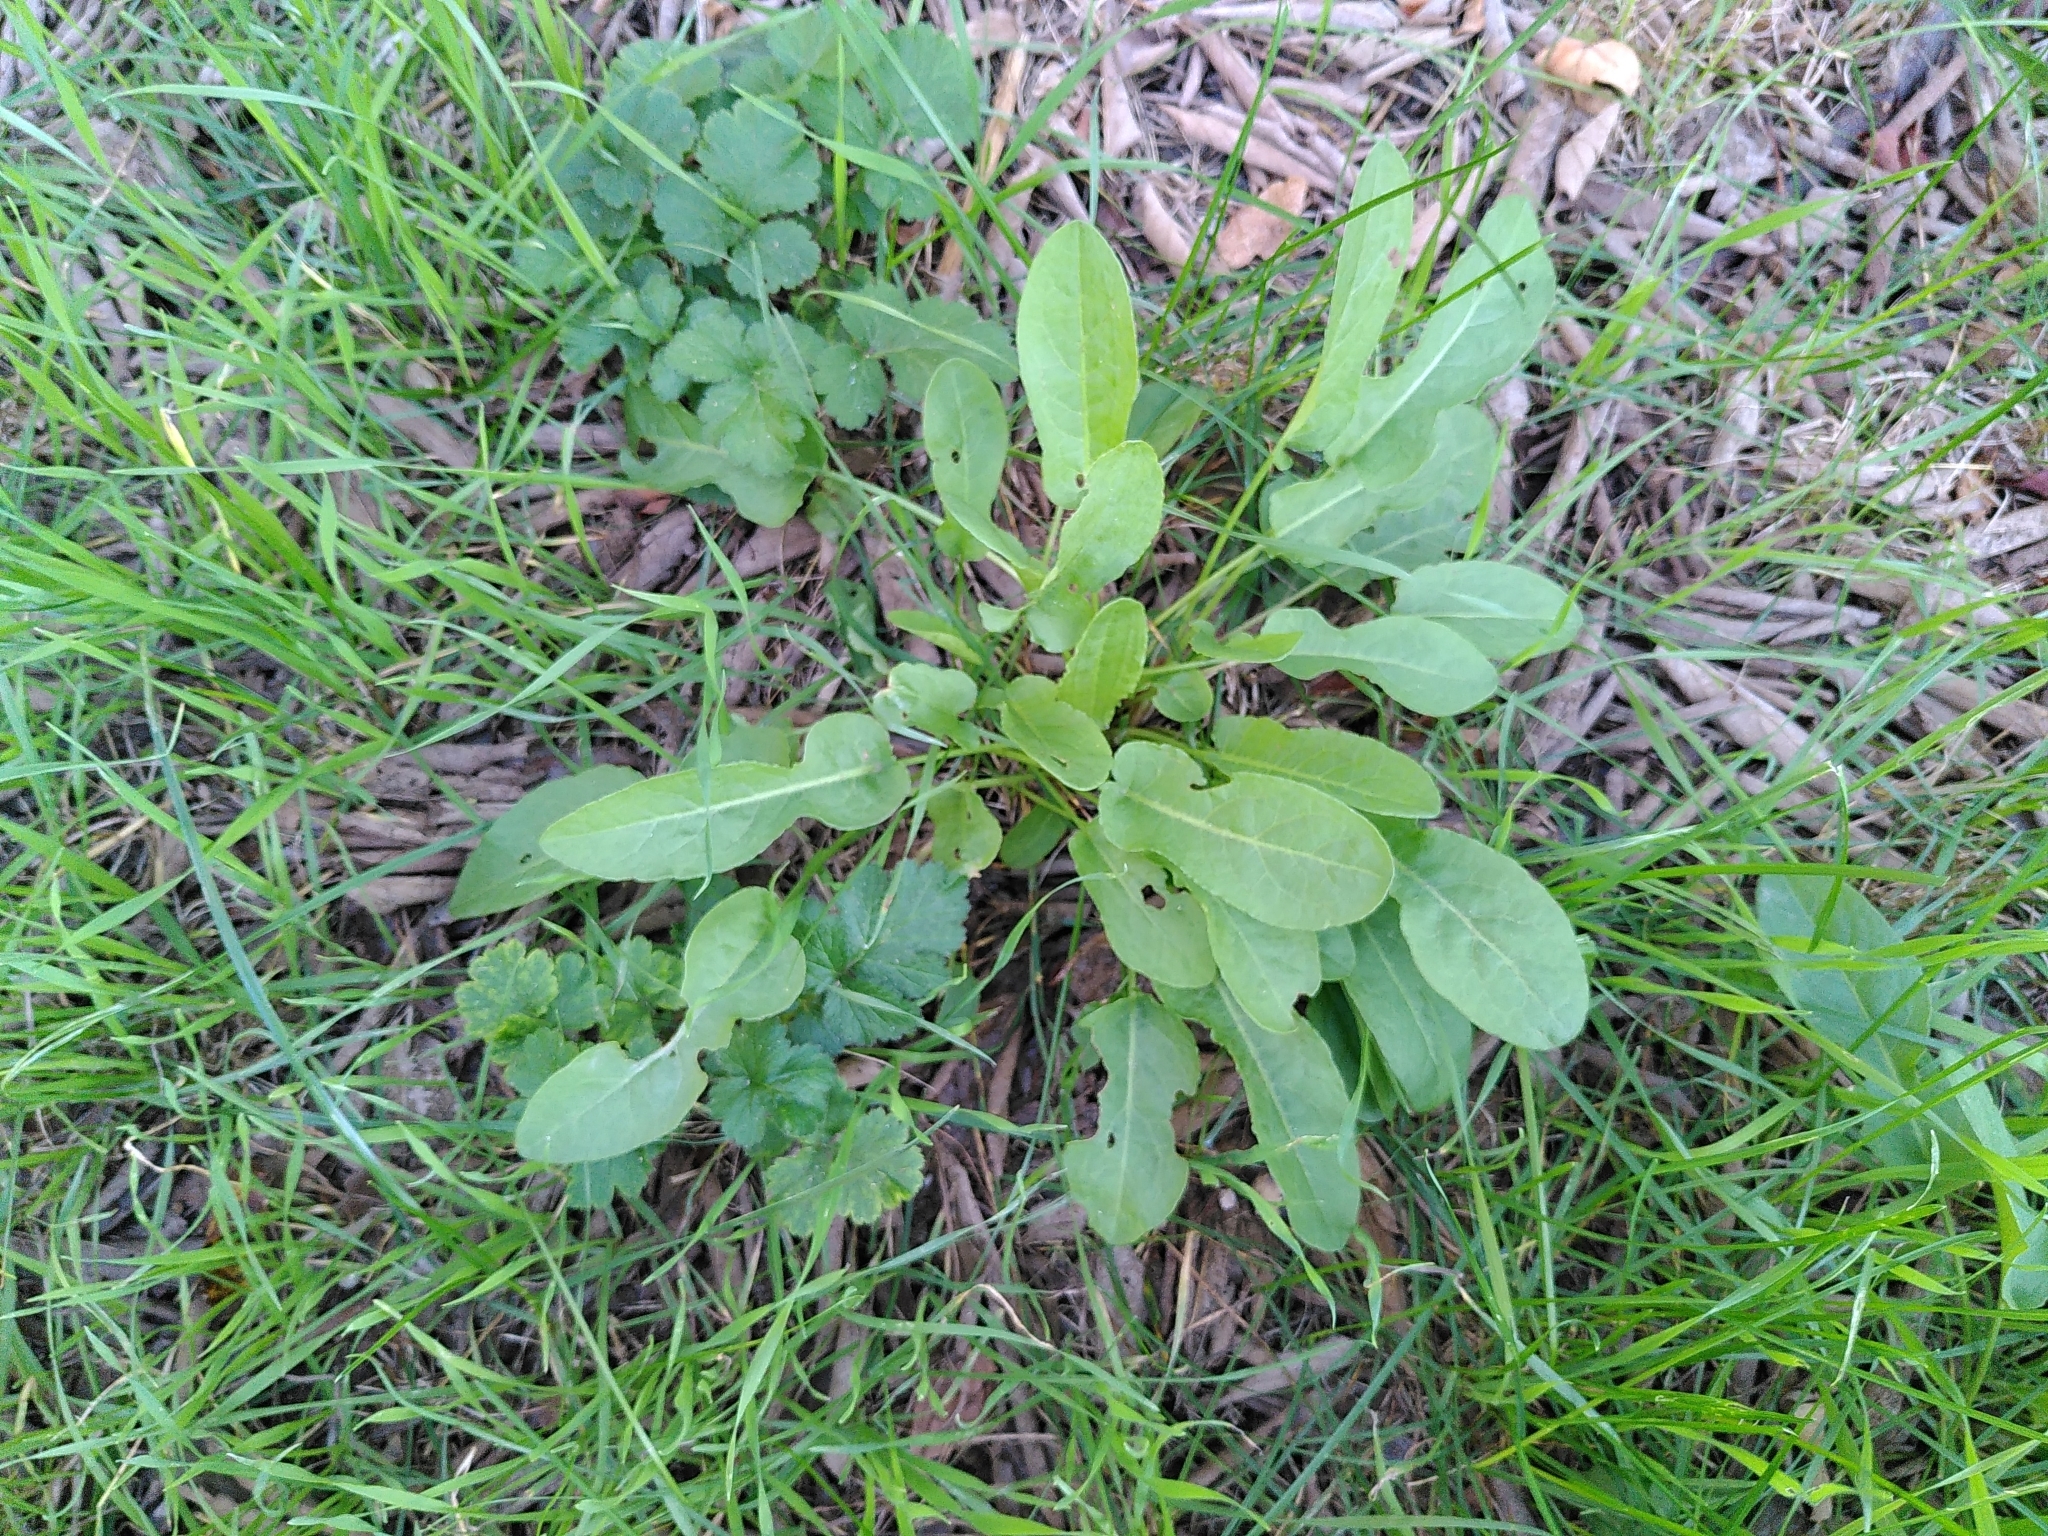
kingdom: Plantae
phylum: Tracheophyta
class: Magnoliopsida
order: Caryophyllales
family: Polygonaceae
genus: Rumex
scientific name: Rumex pulcher
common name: Fiddle dock
